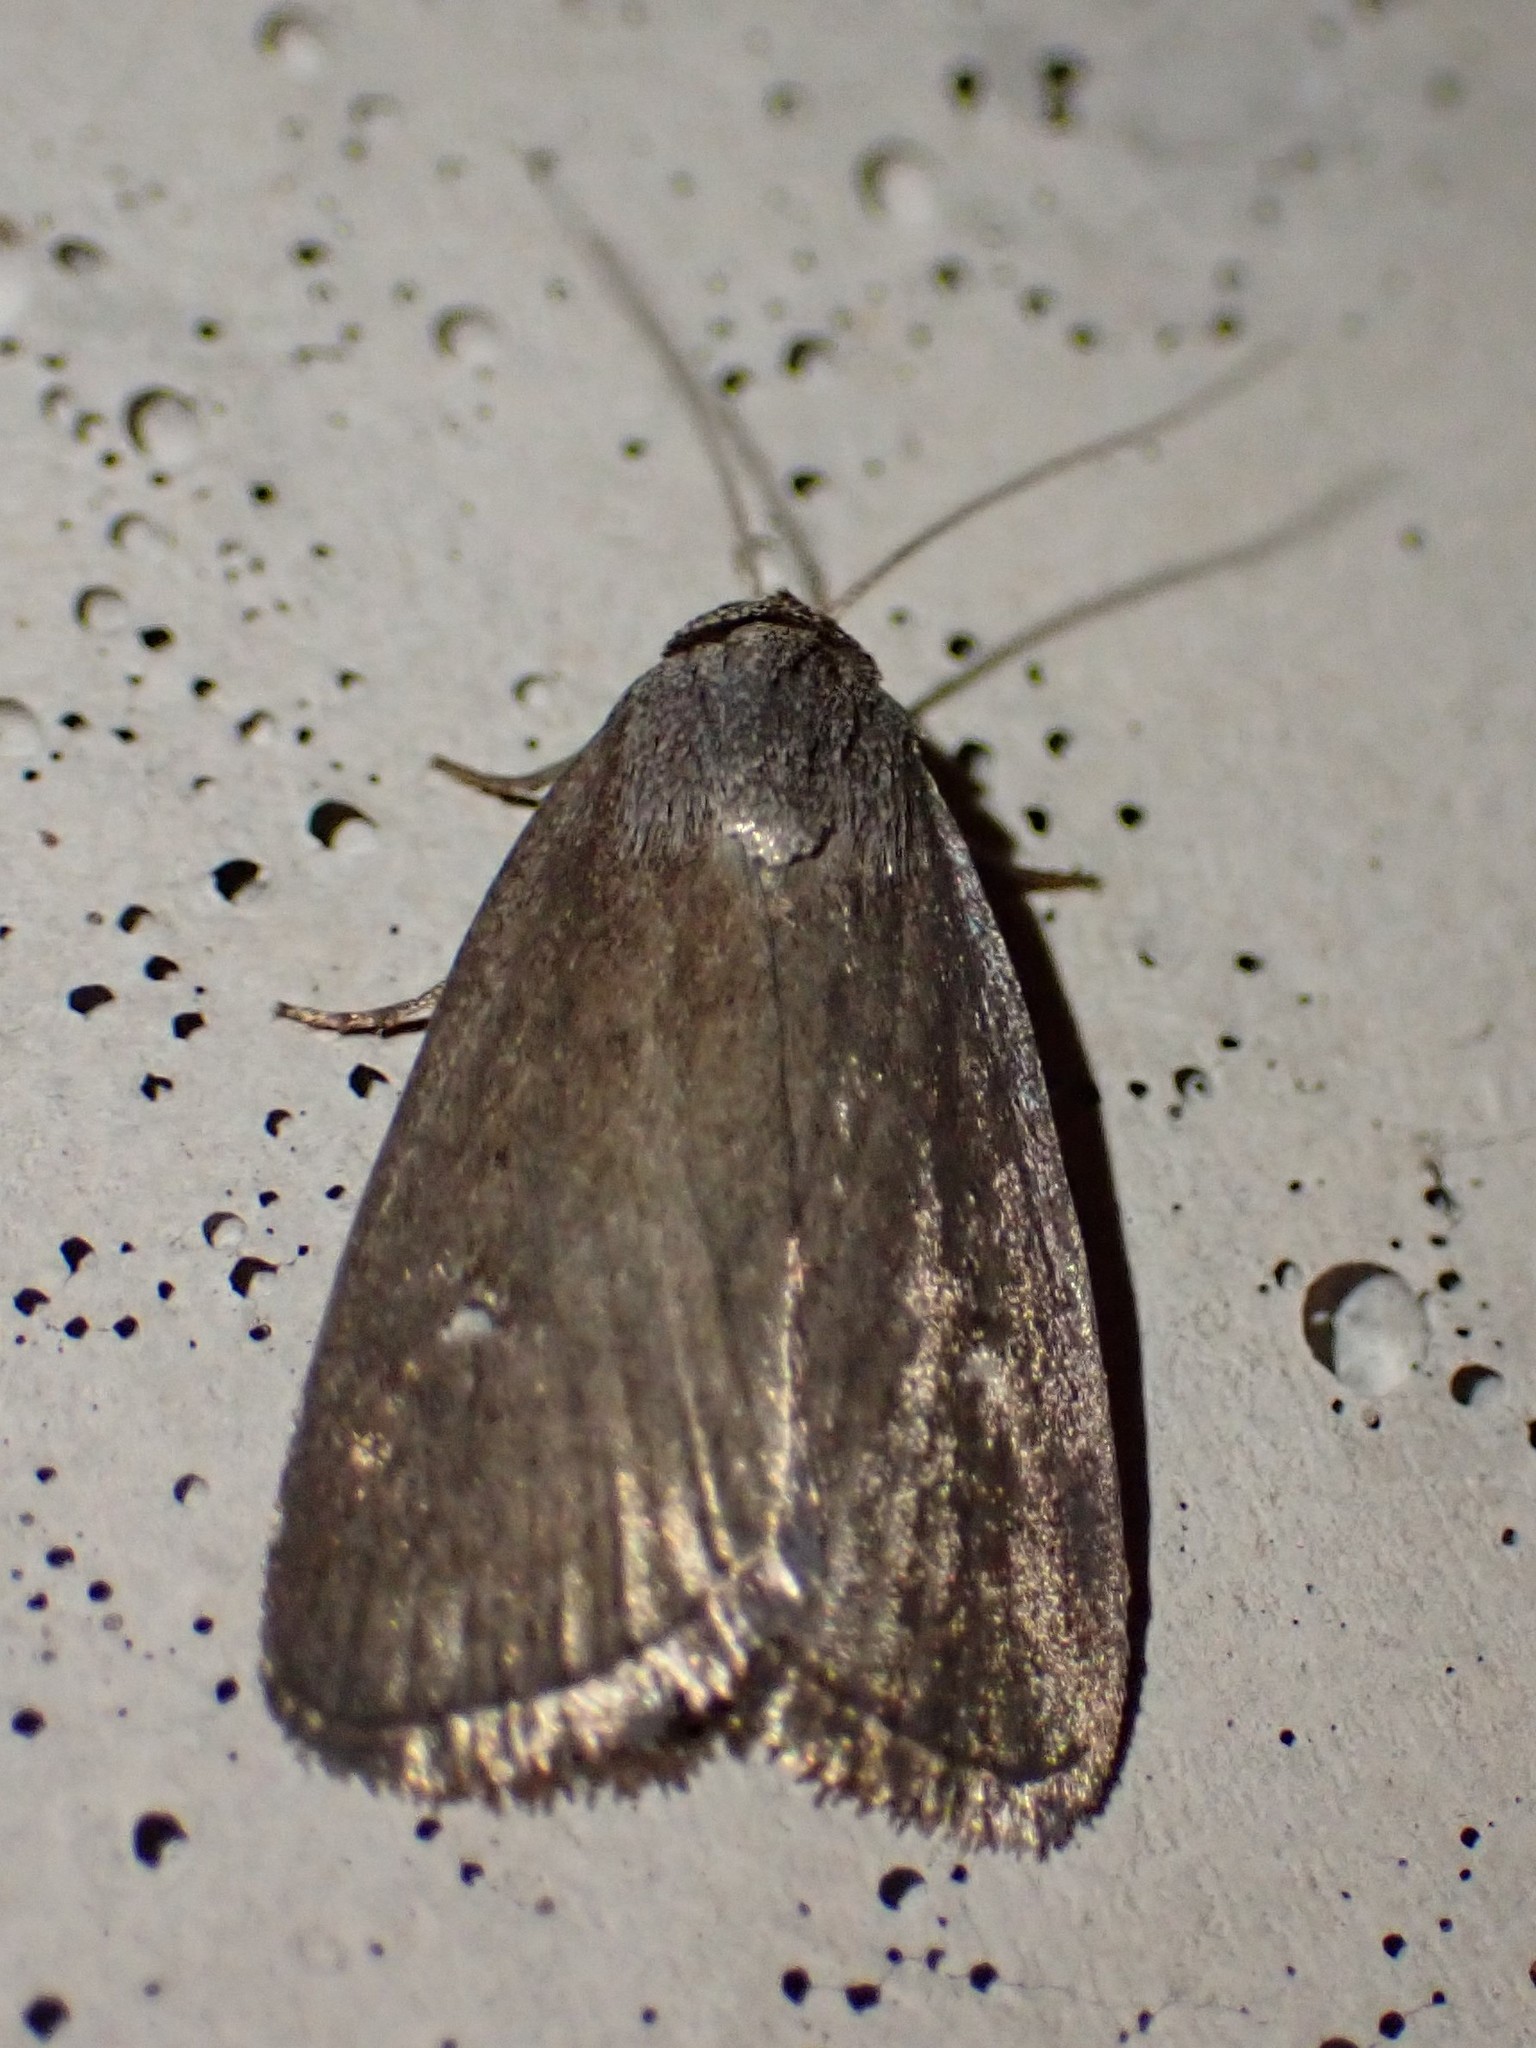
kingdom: Animalia
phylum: Arthropoda
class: Insecta
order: Lepidoptera
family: Noctuidae
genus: Proxenus
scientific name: Proxenus miranda
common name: Miranda moth
